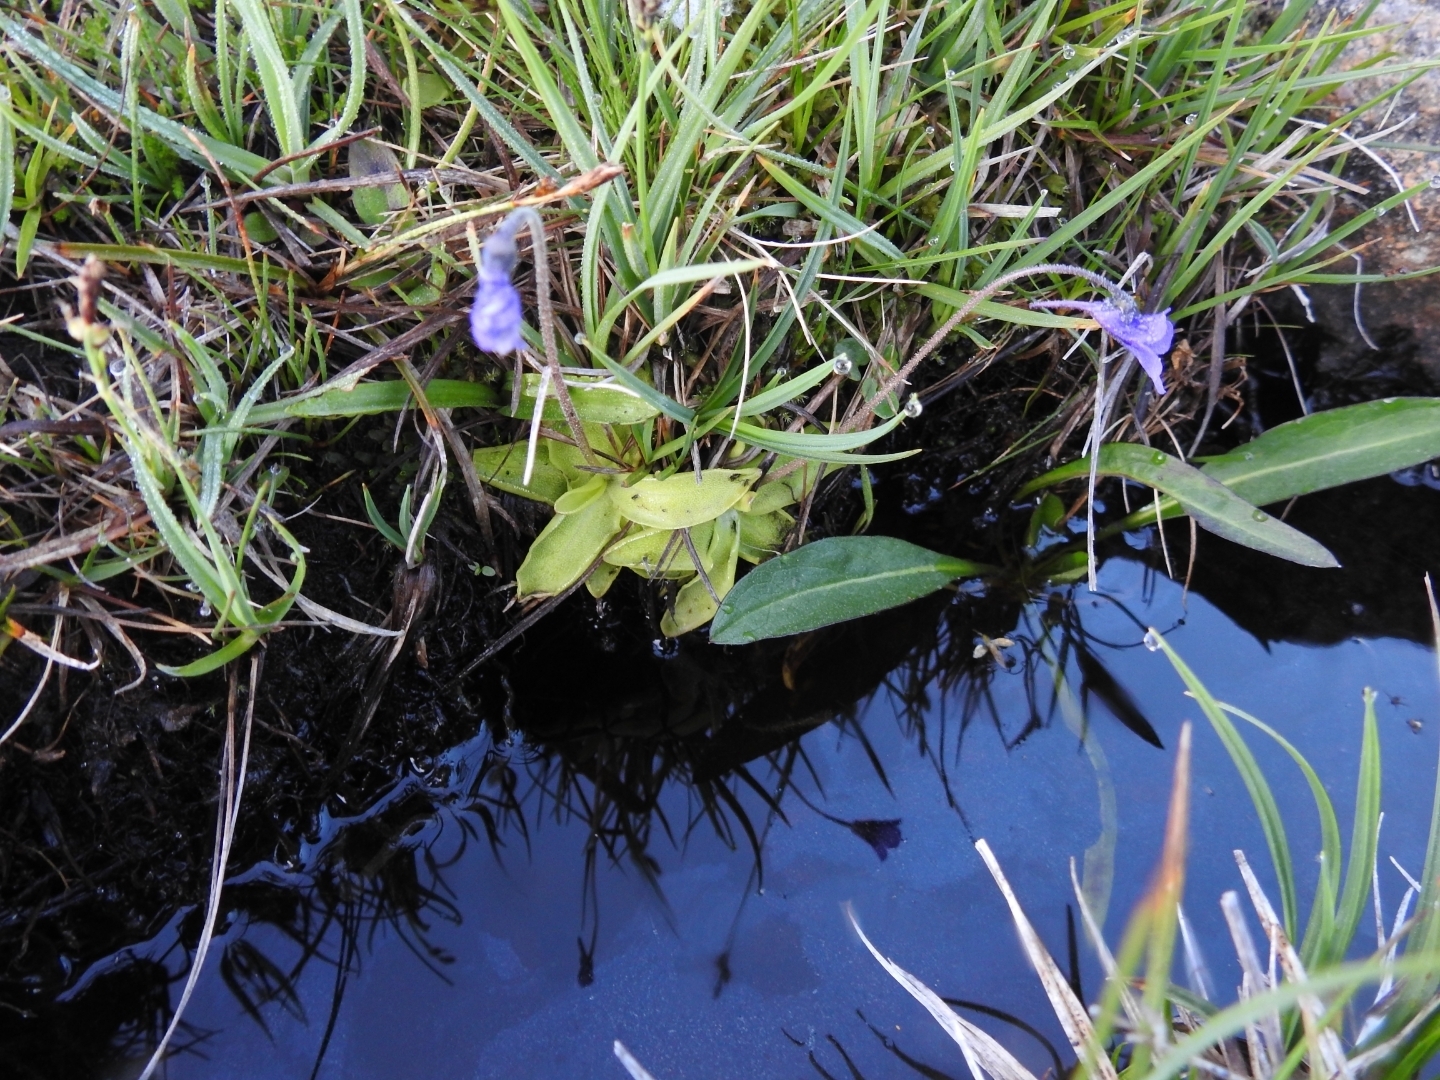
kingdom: Plantae
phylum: Tracheophyta
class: Magnoliopsida
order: Lamiales
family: Lentibulariaceae
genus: Pinguicula
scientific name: Pinguicula vulgaris
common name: Common butterwort
